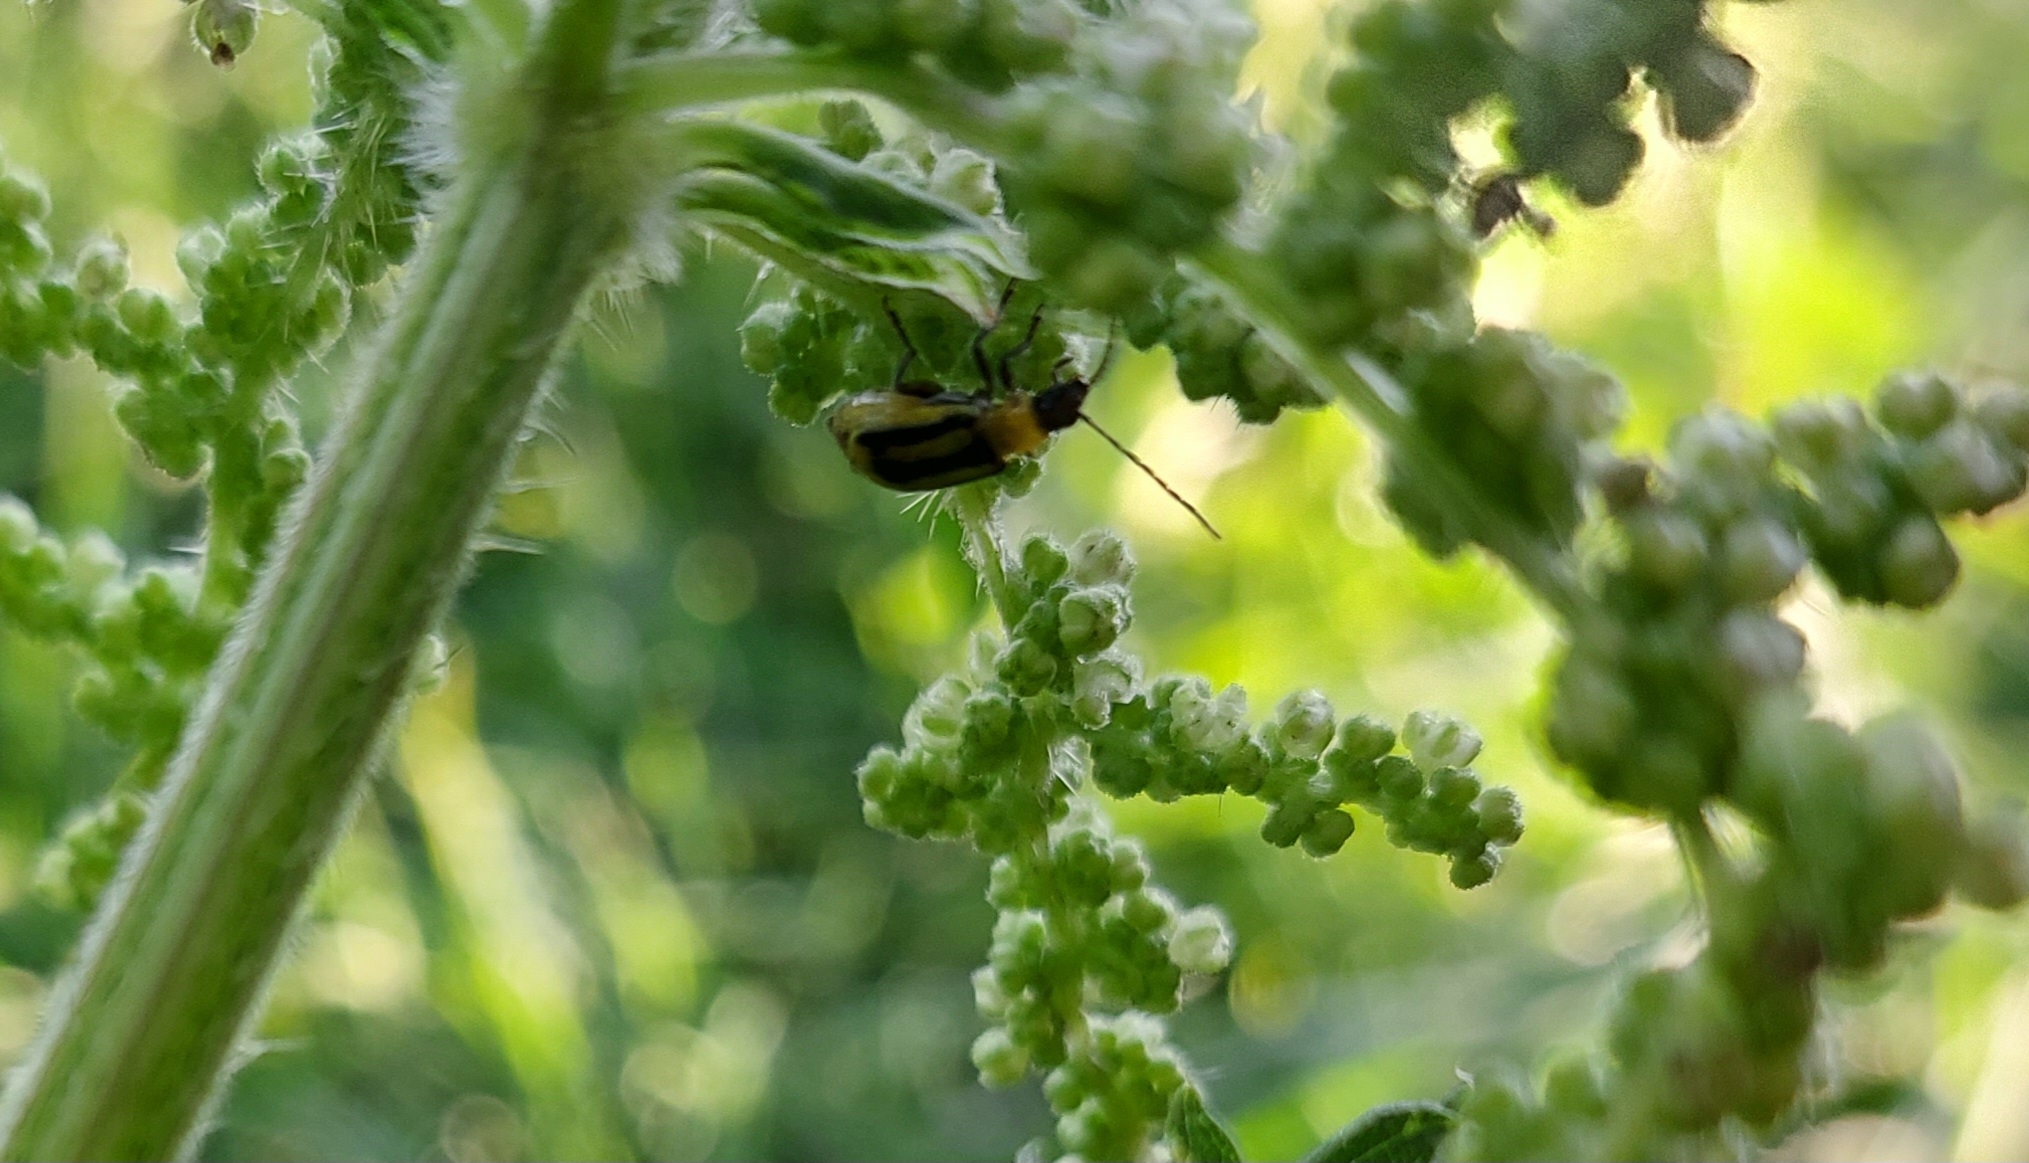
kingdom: Animalia
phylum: Arthropoda
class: Insecta
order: Coleoptera
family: Chrysomelidae
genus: Diabrotica
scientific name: Diabrotica virgifera
